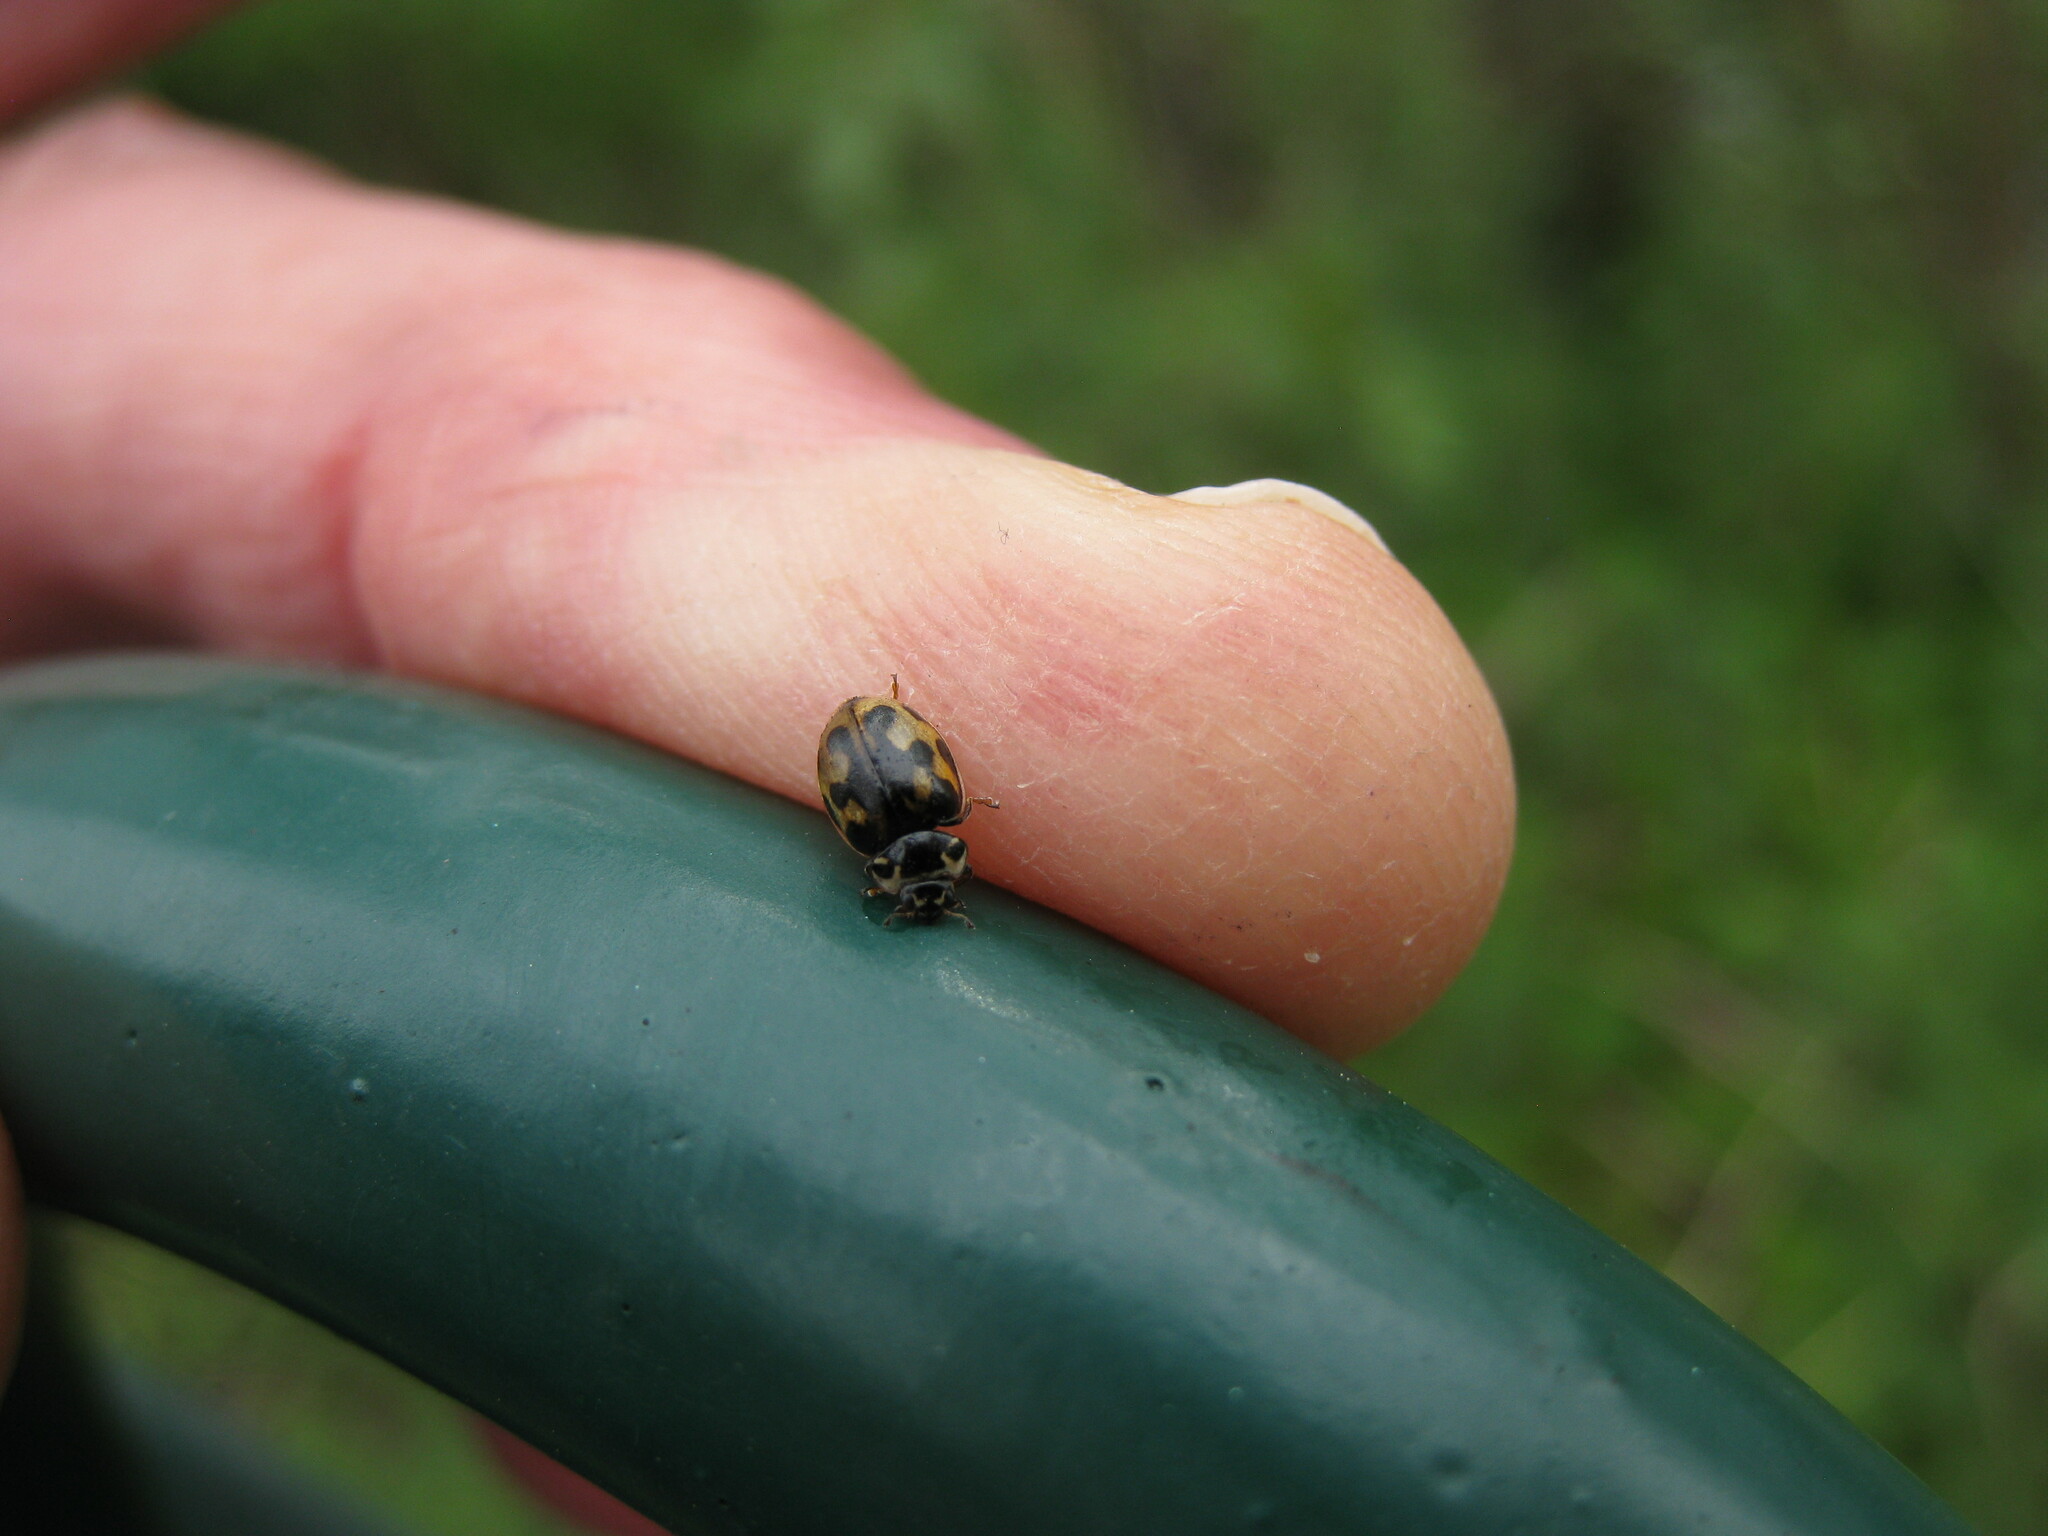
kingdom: Animalia
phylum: Arthropoda
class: Insecta
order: Coleoptera
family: Coccinellidae
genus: Coccinella
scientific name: Coccinella hieroglyphica
